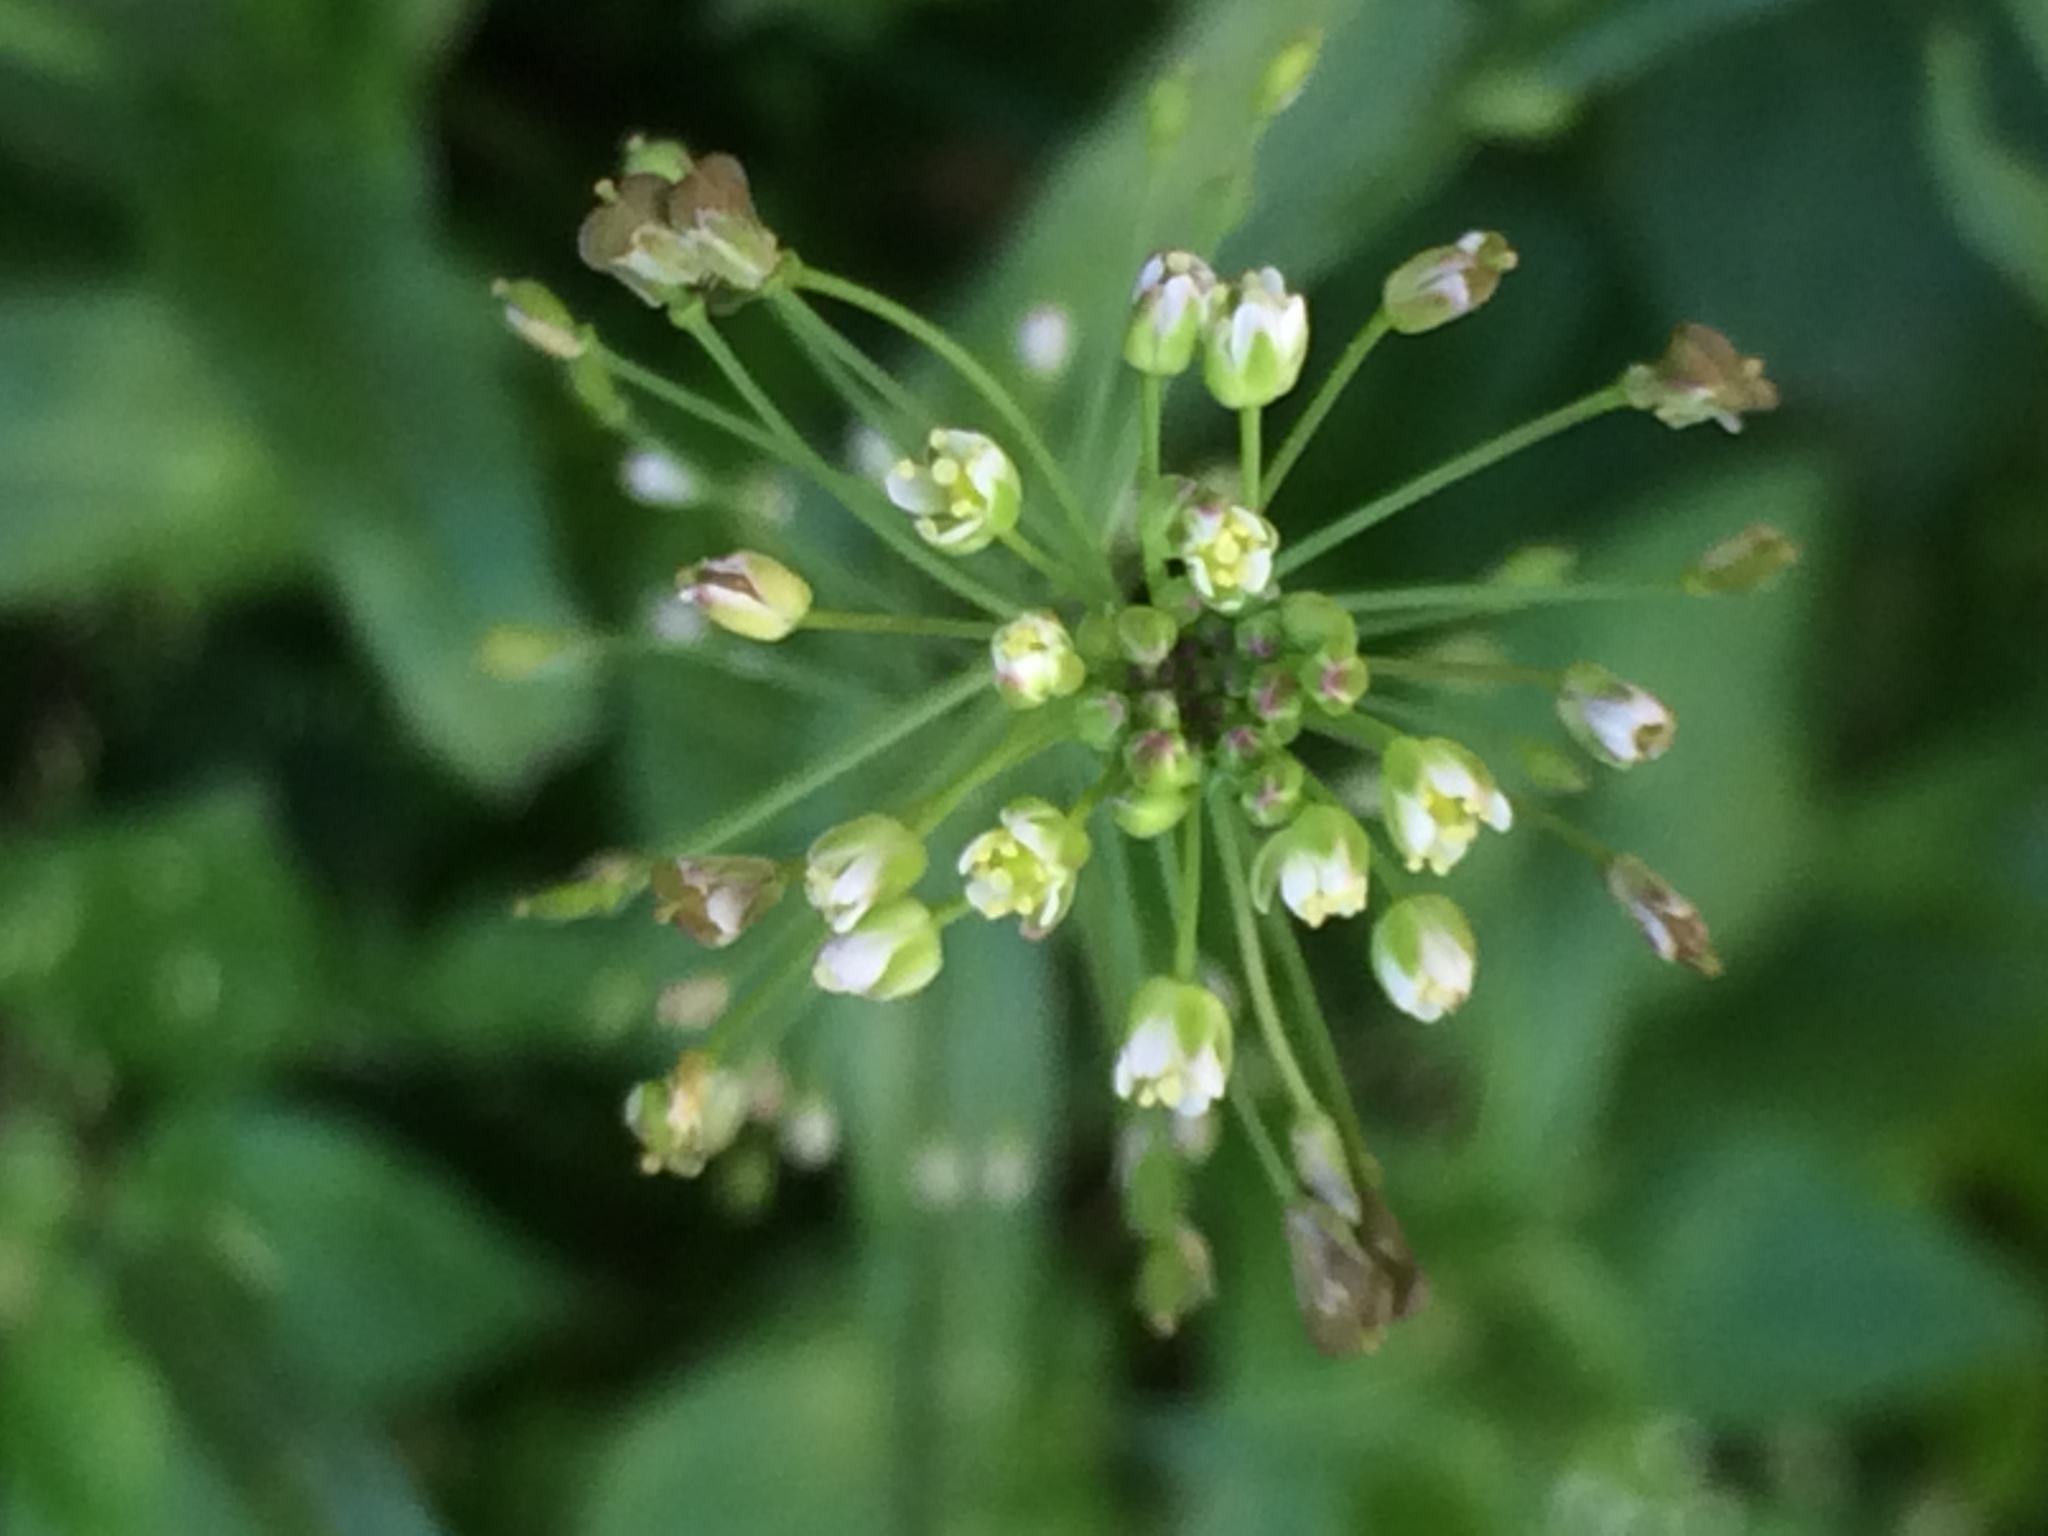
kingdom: Plantae
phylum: Tracheophyta
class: Magnoliopsida
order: Brassicales
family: Brassicaceae
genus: Capsella
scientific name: Capsella bursa-pastoris
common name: Shepherd's purse
